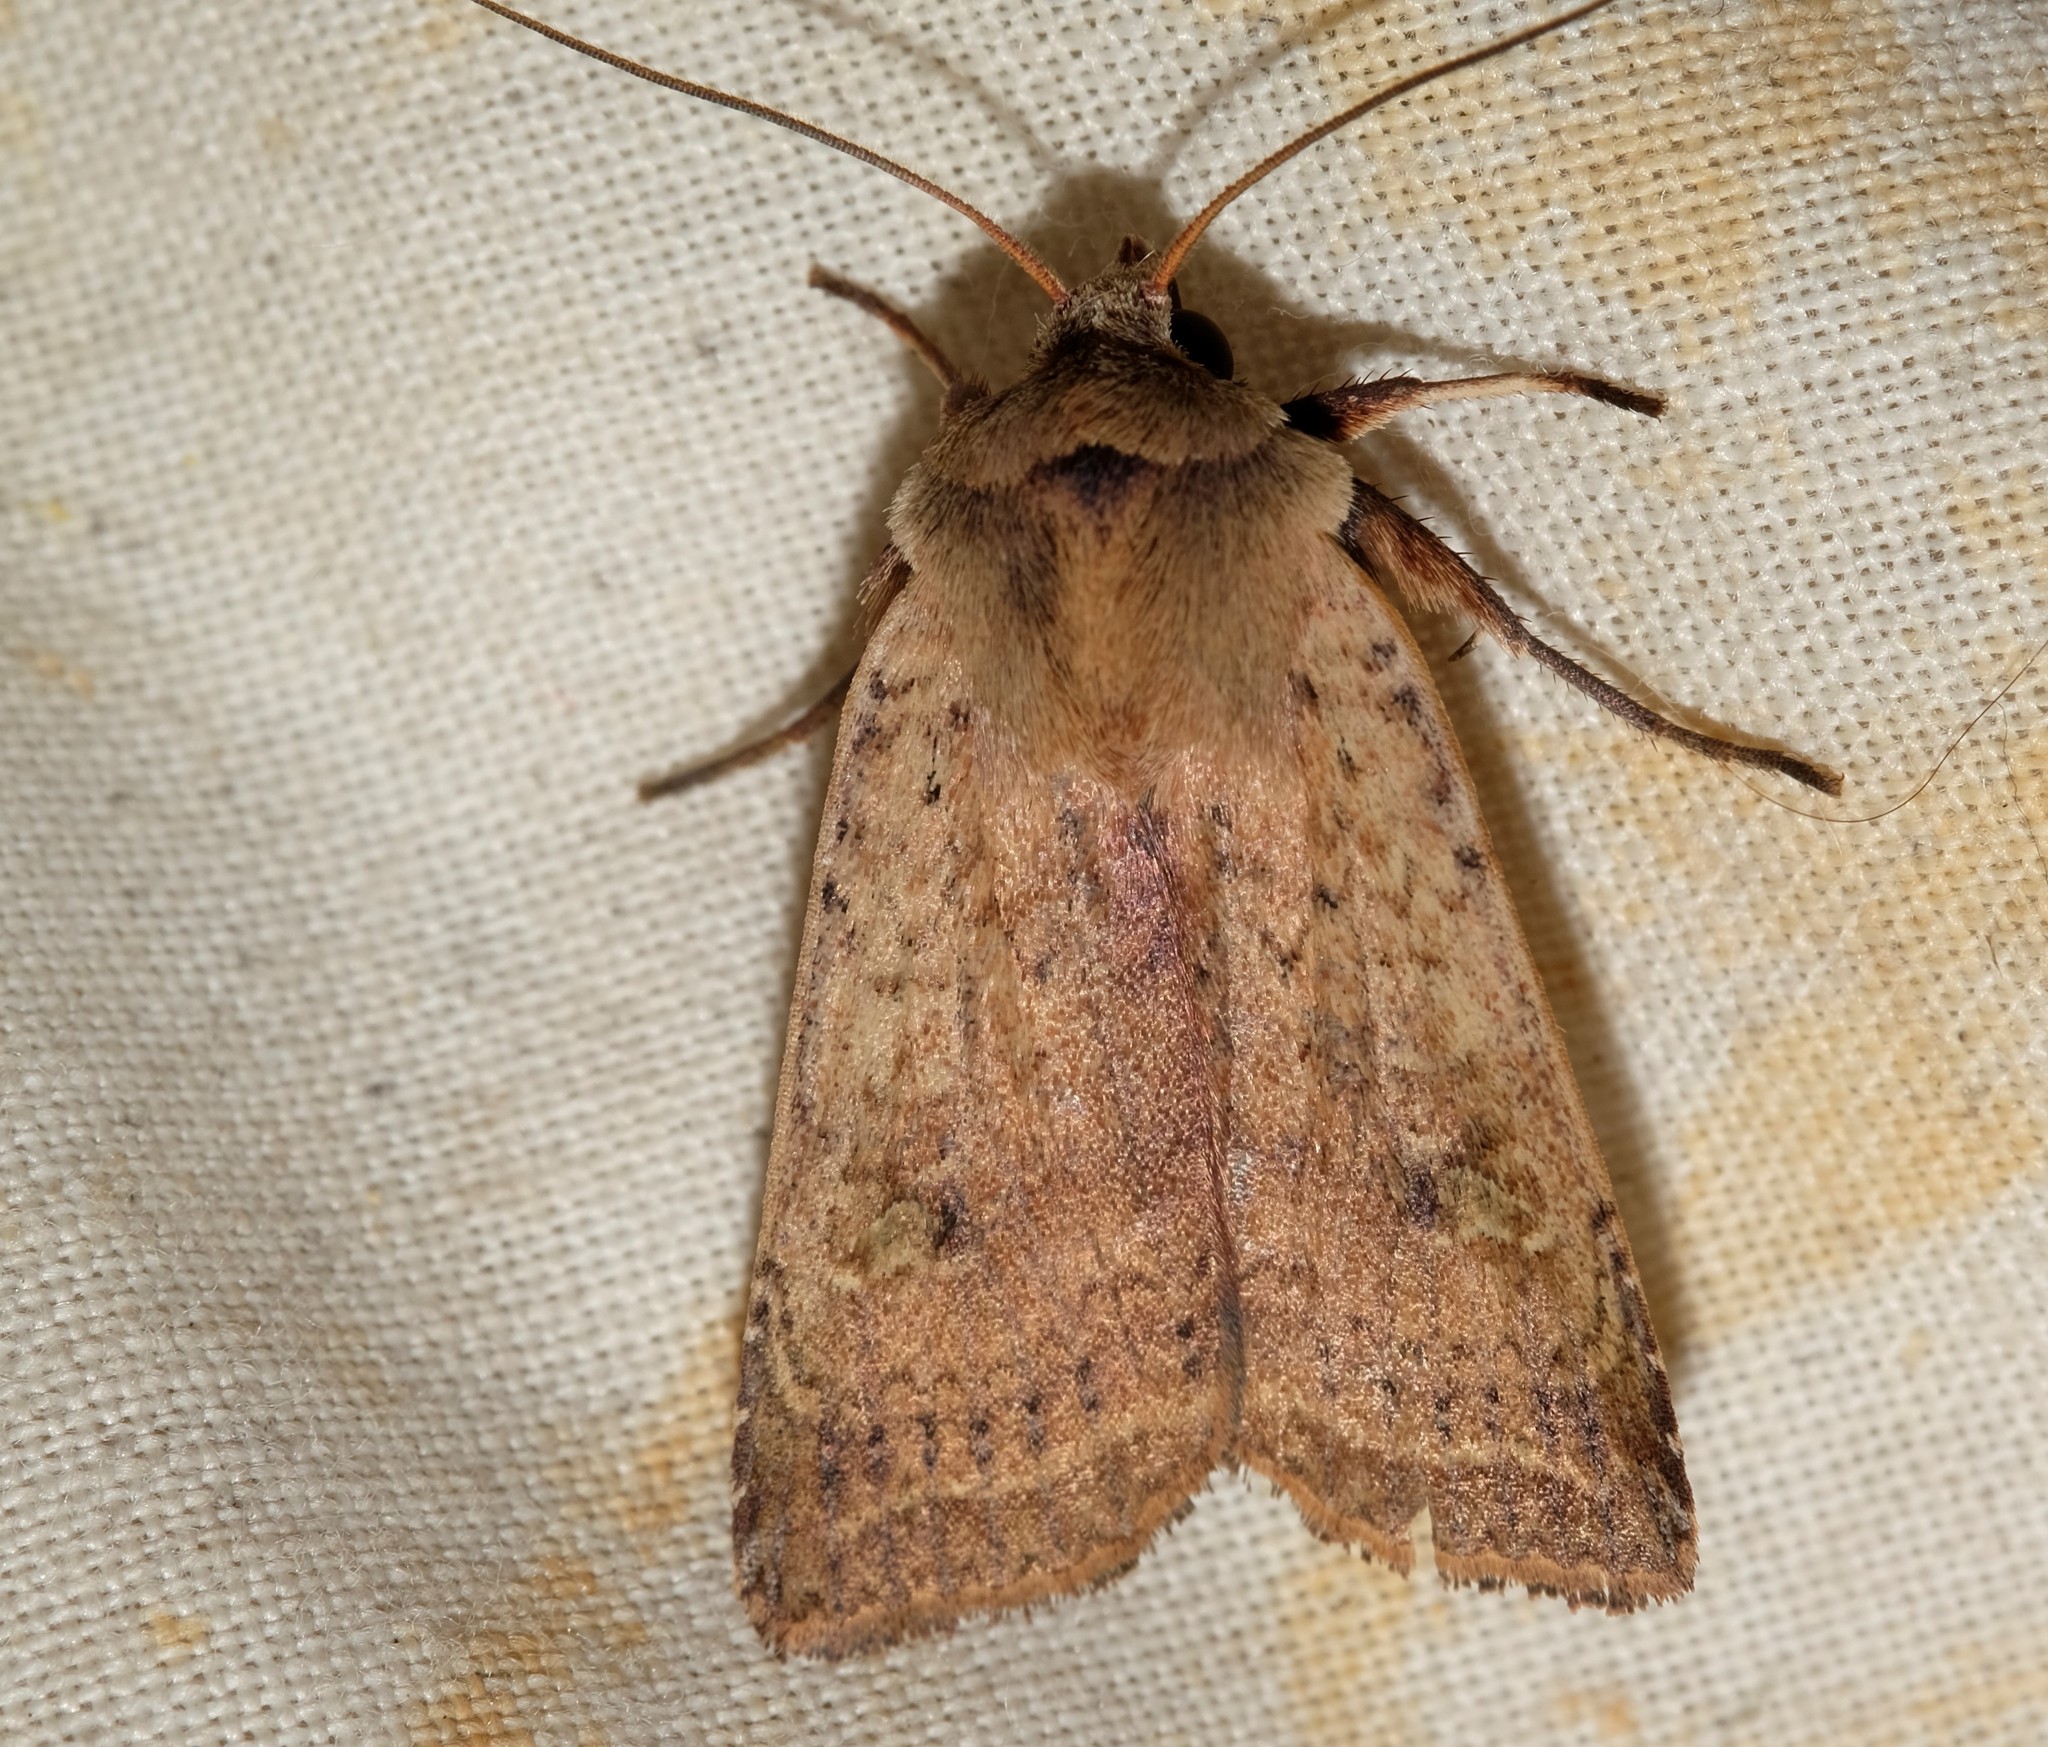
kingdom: Animalia
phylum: Arthropoda
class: Insecta
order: Lepidoptera
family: Noctuidae
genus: Diarsia
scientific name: Diarsia intermixta
